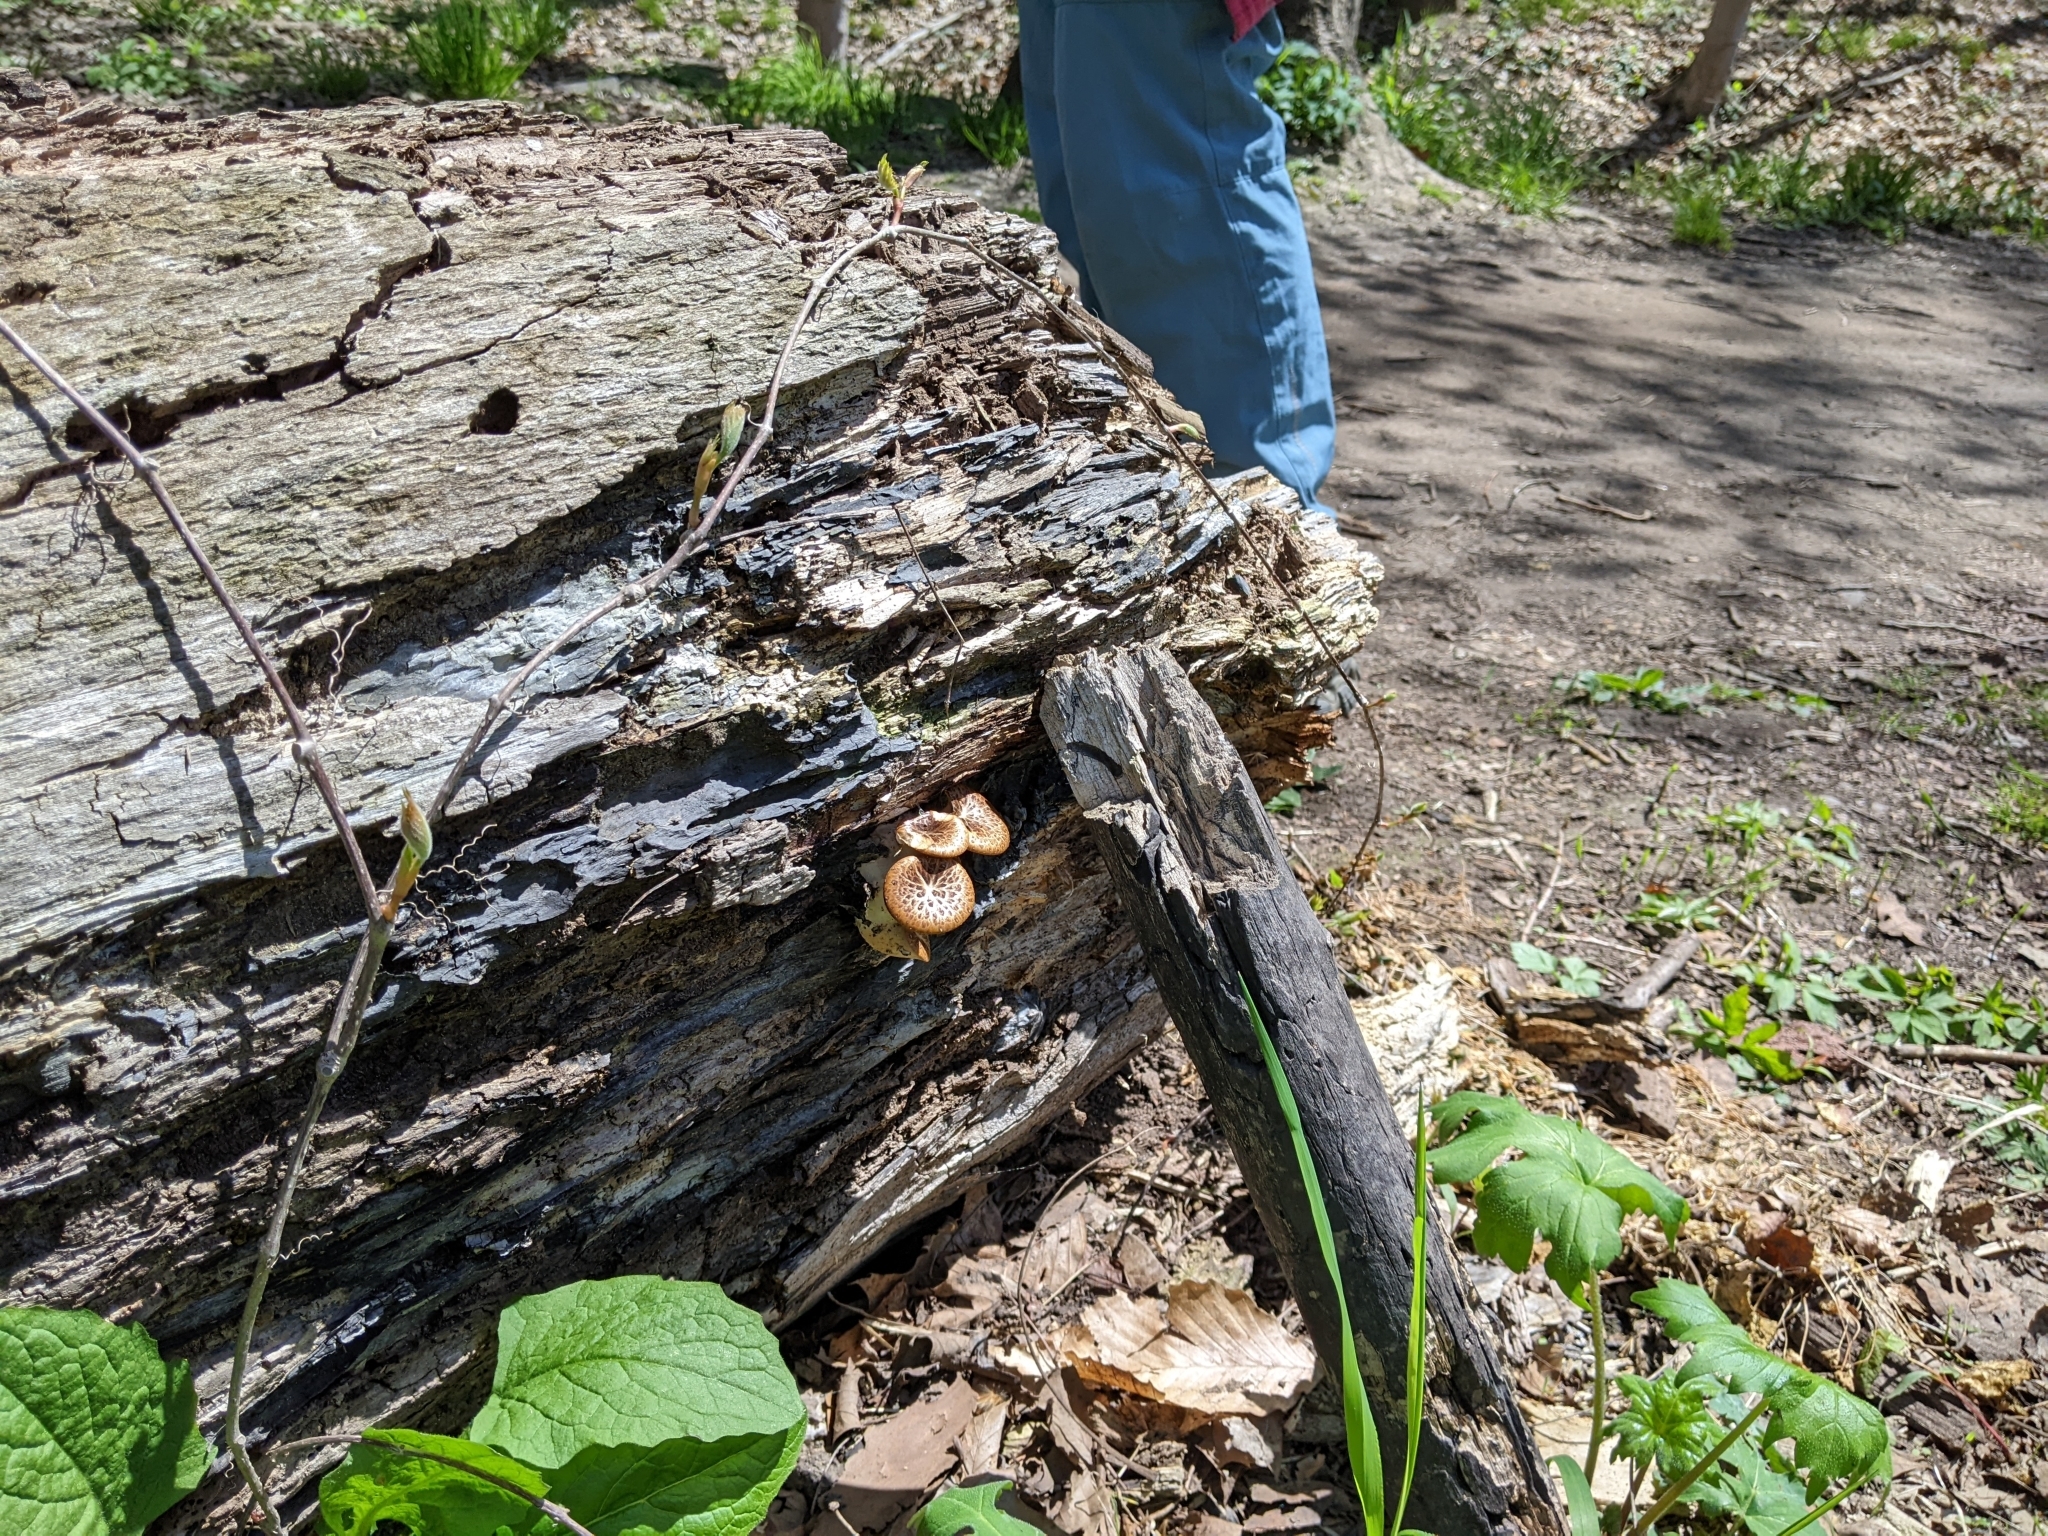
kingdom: Fungi
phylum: Basidiomycota
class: Agaricomycetes
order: Polyporales
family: Polyporaceae
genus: Cerioporus
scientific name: Cerioporus squamosus
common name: Dryad's saddle
